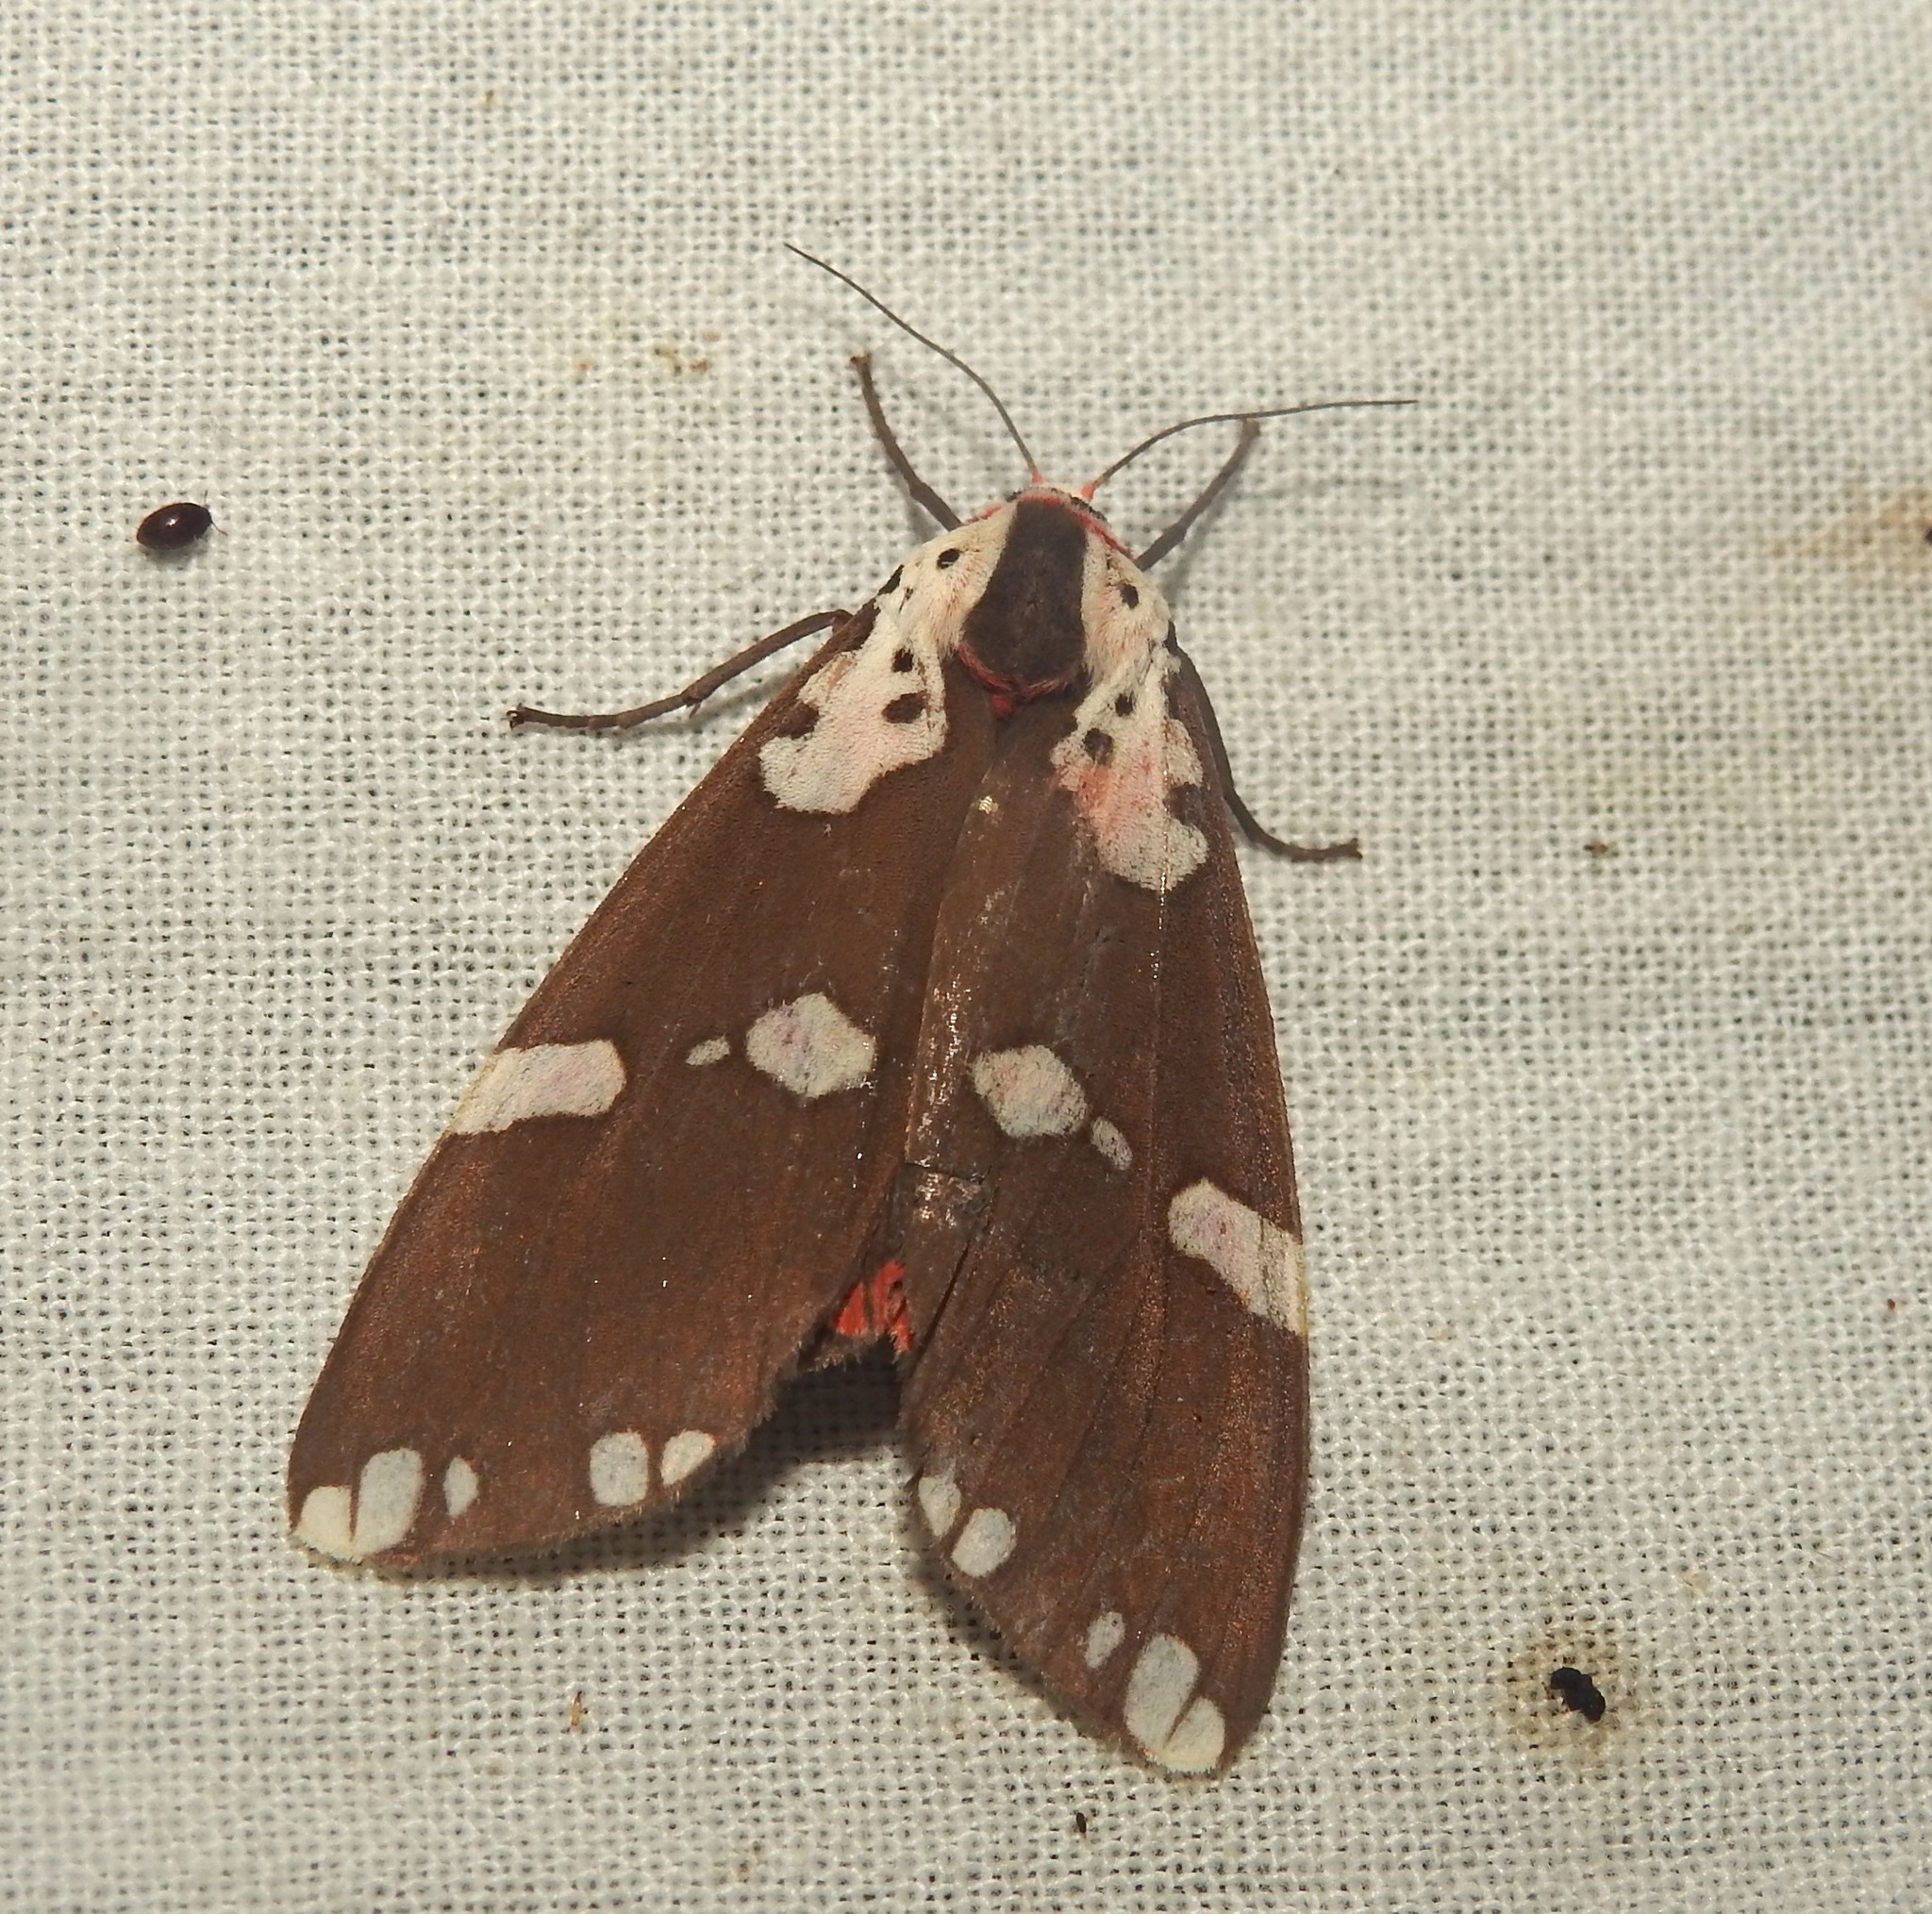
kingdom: Animalia
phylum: Arthropoda
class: Insecta
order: Lepidoptera
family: Erebidae
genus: Pericallia
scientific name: Pericallia
